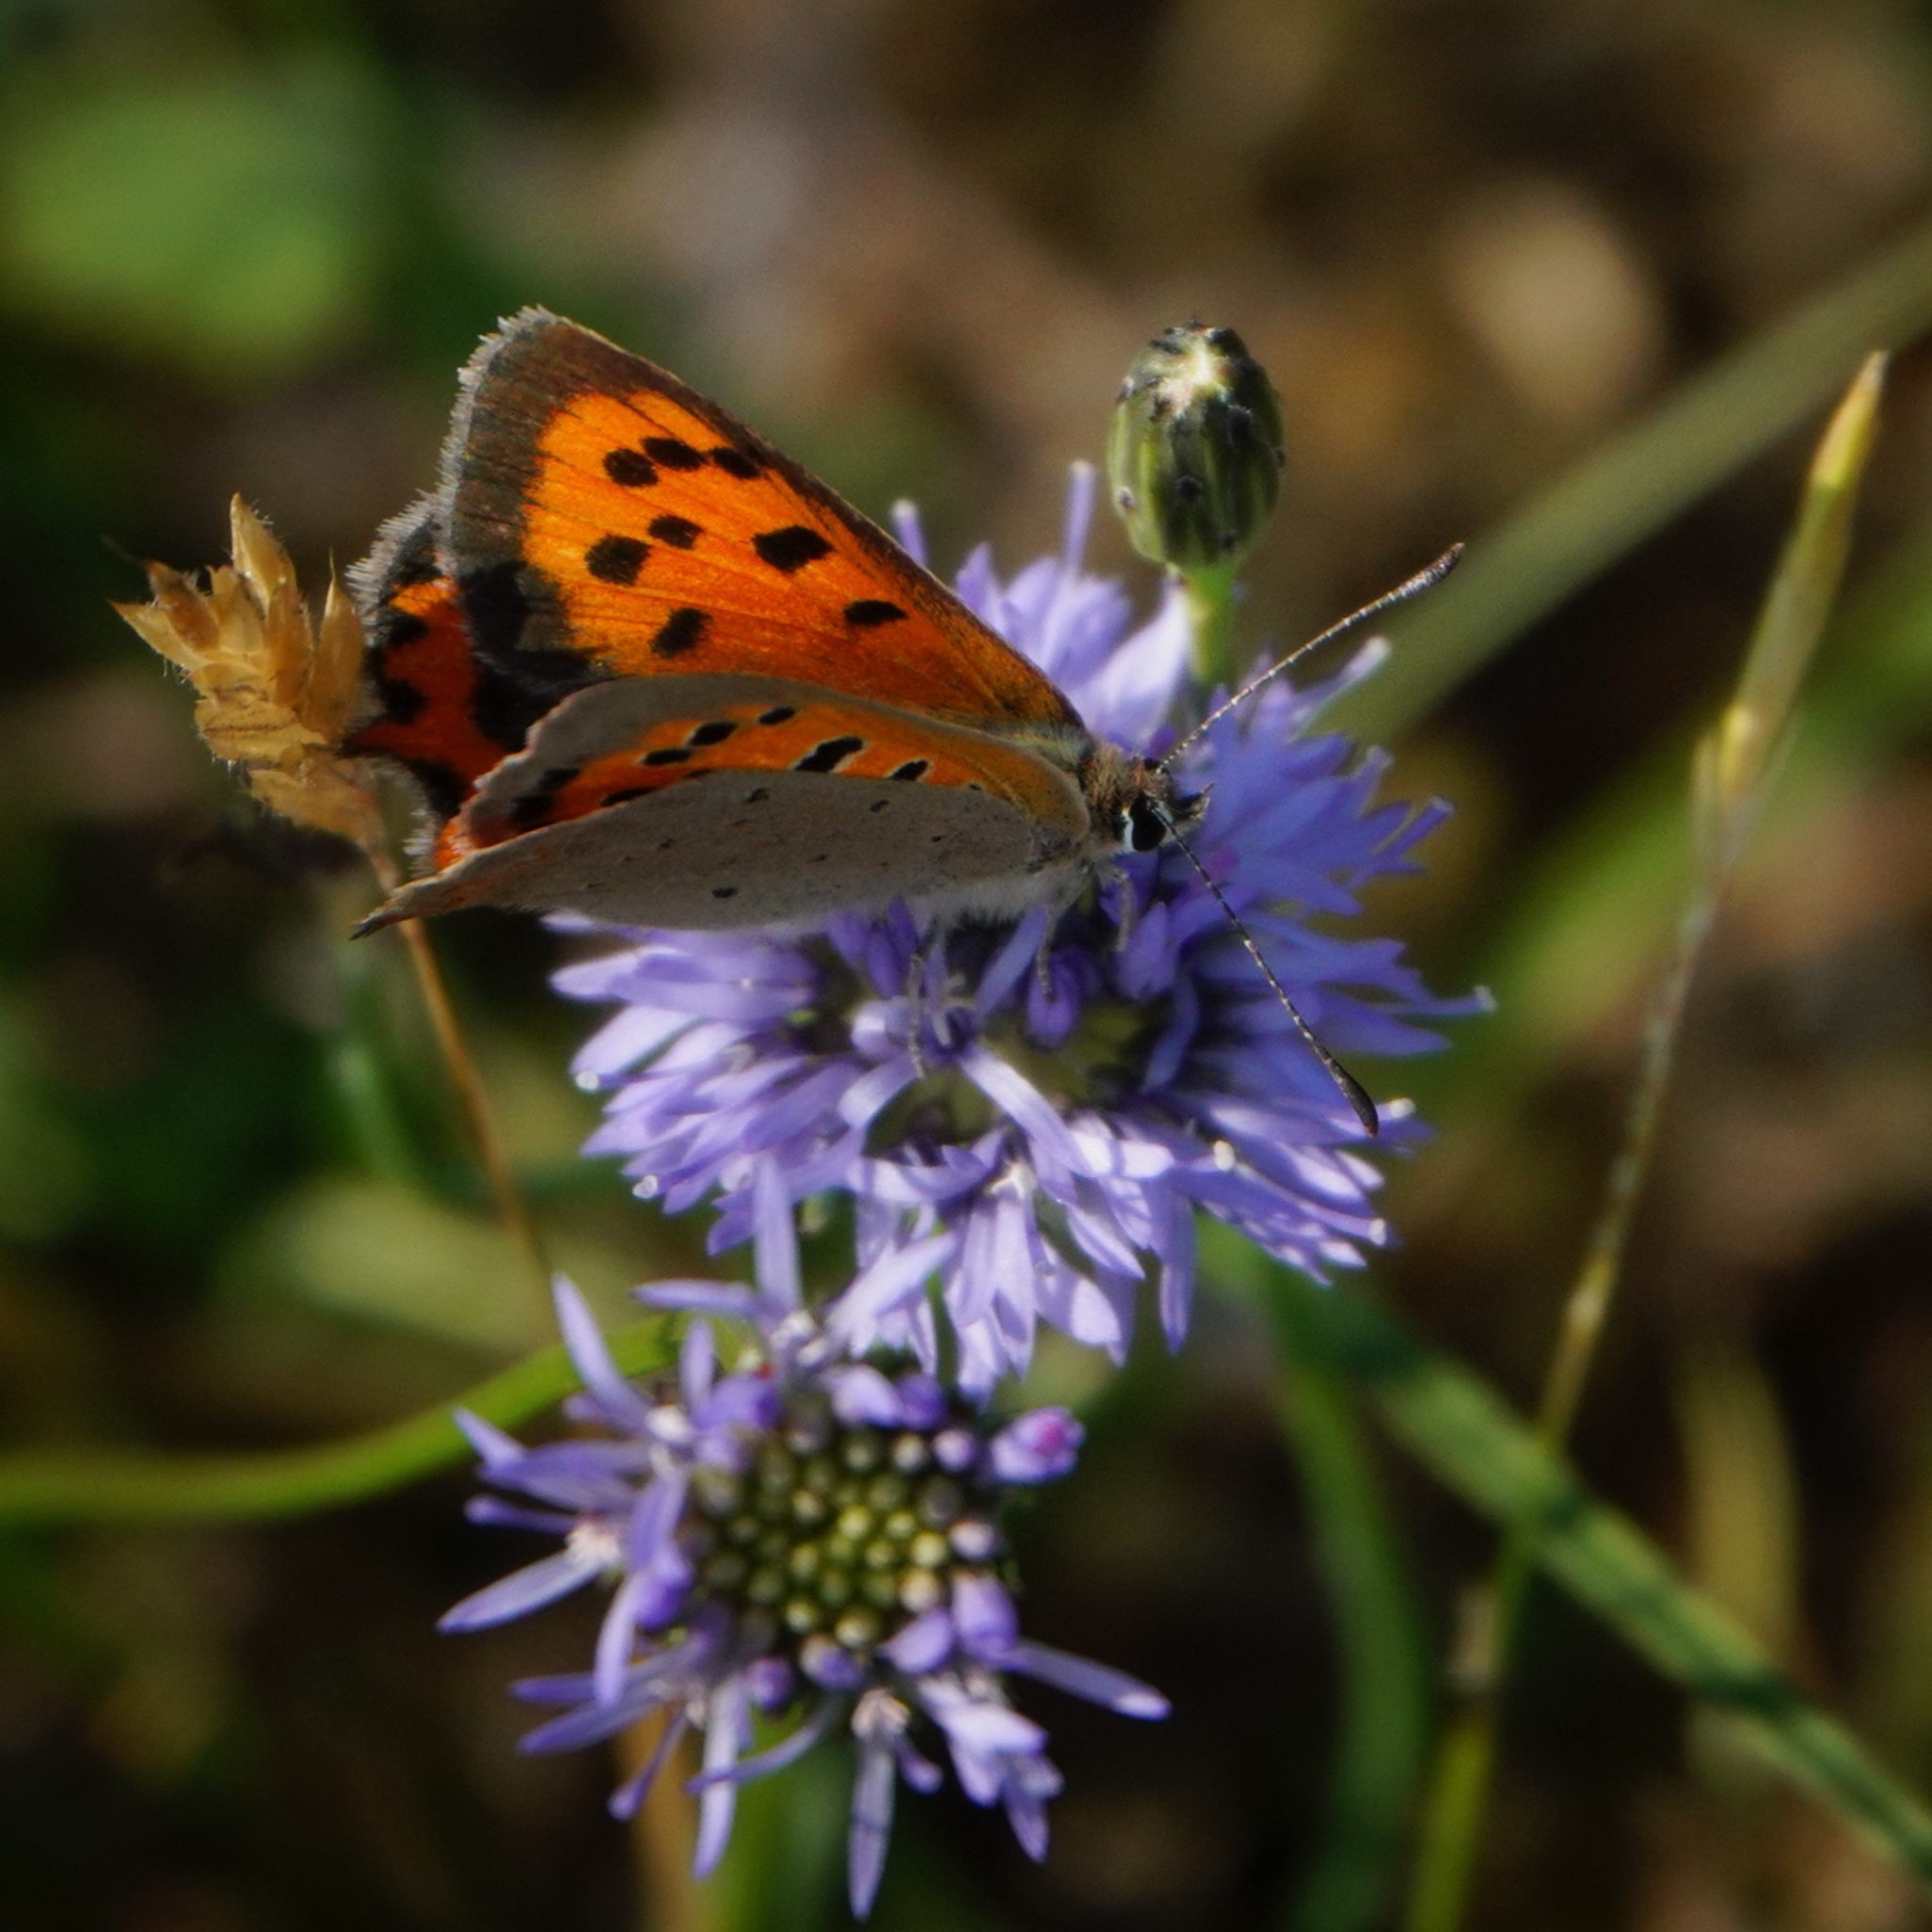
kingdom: Animalia
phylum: Arthropoda
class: Insecta
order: Lepidoptera
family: Lycaenidae
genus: Lycaena
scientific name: Lycaena phlaeas
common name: Small copper
